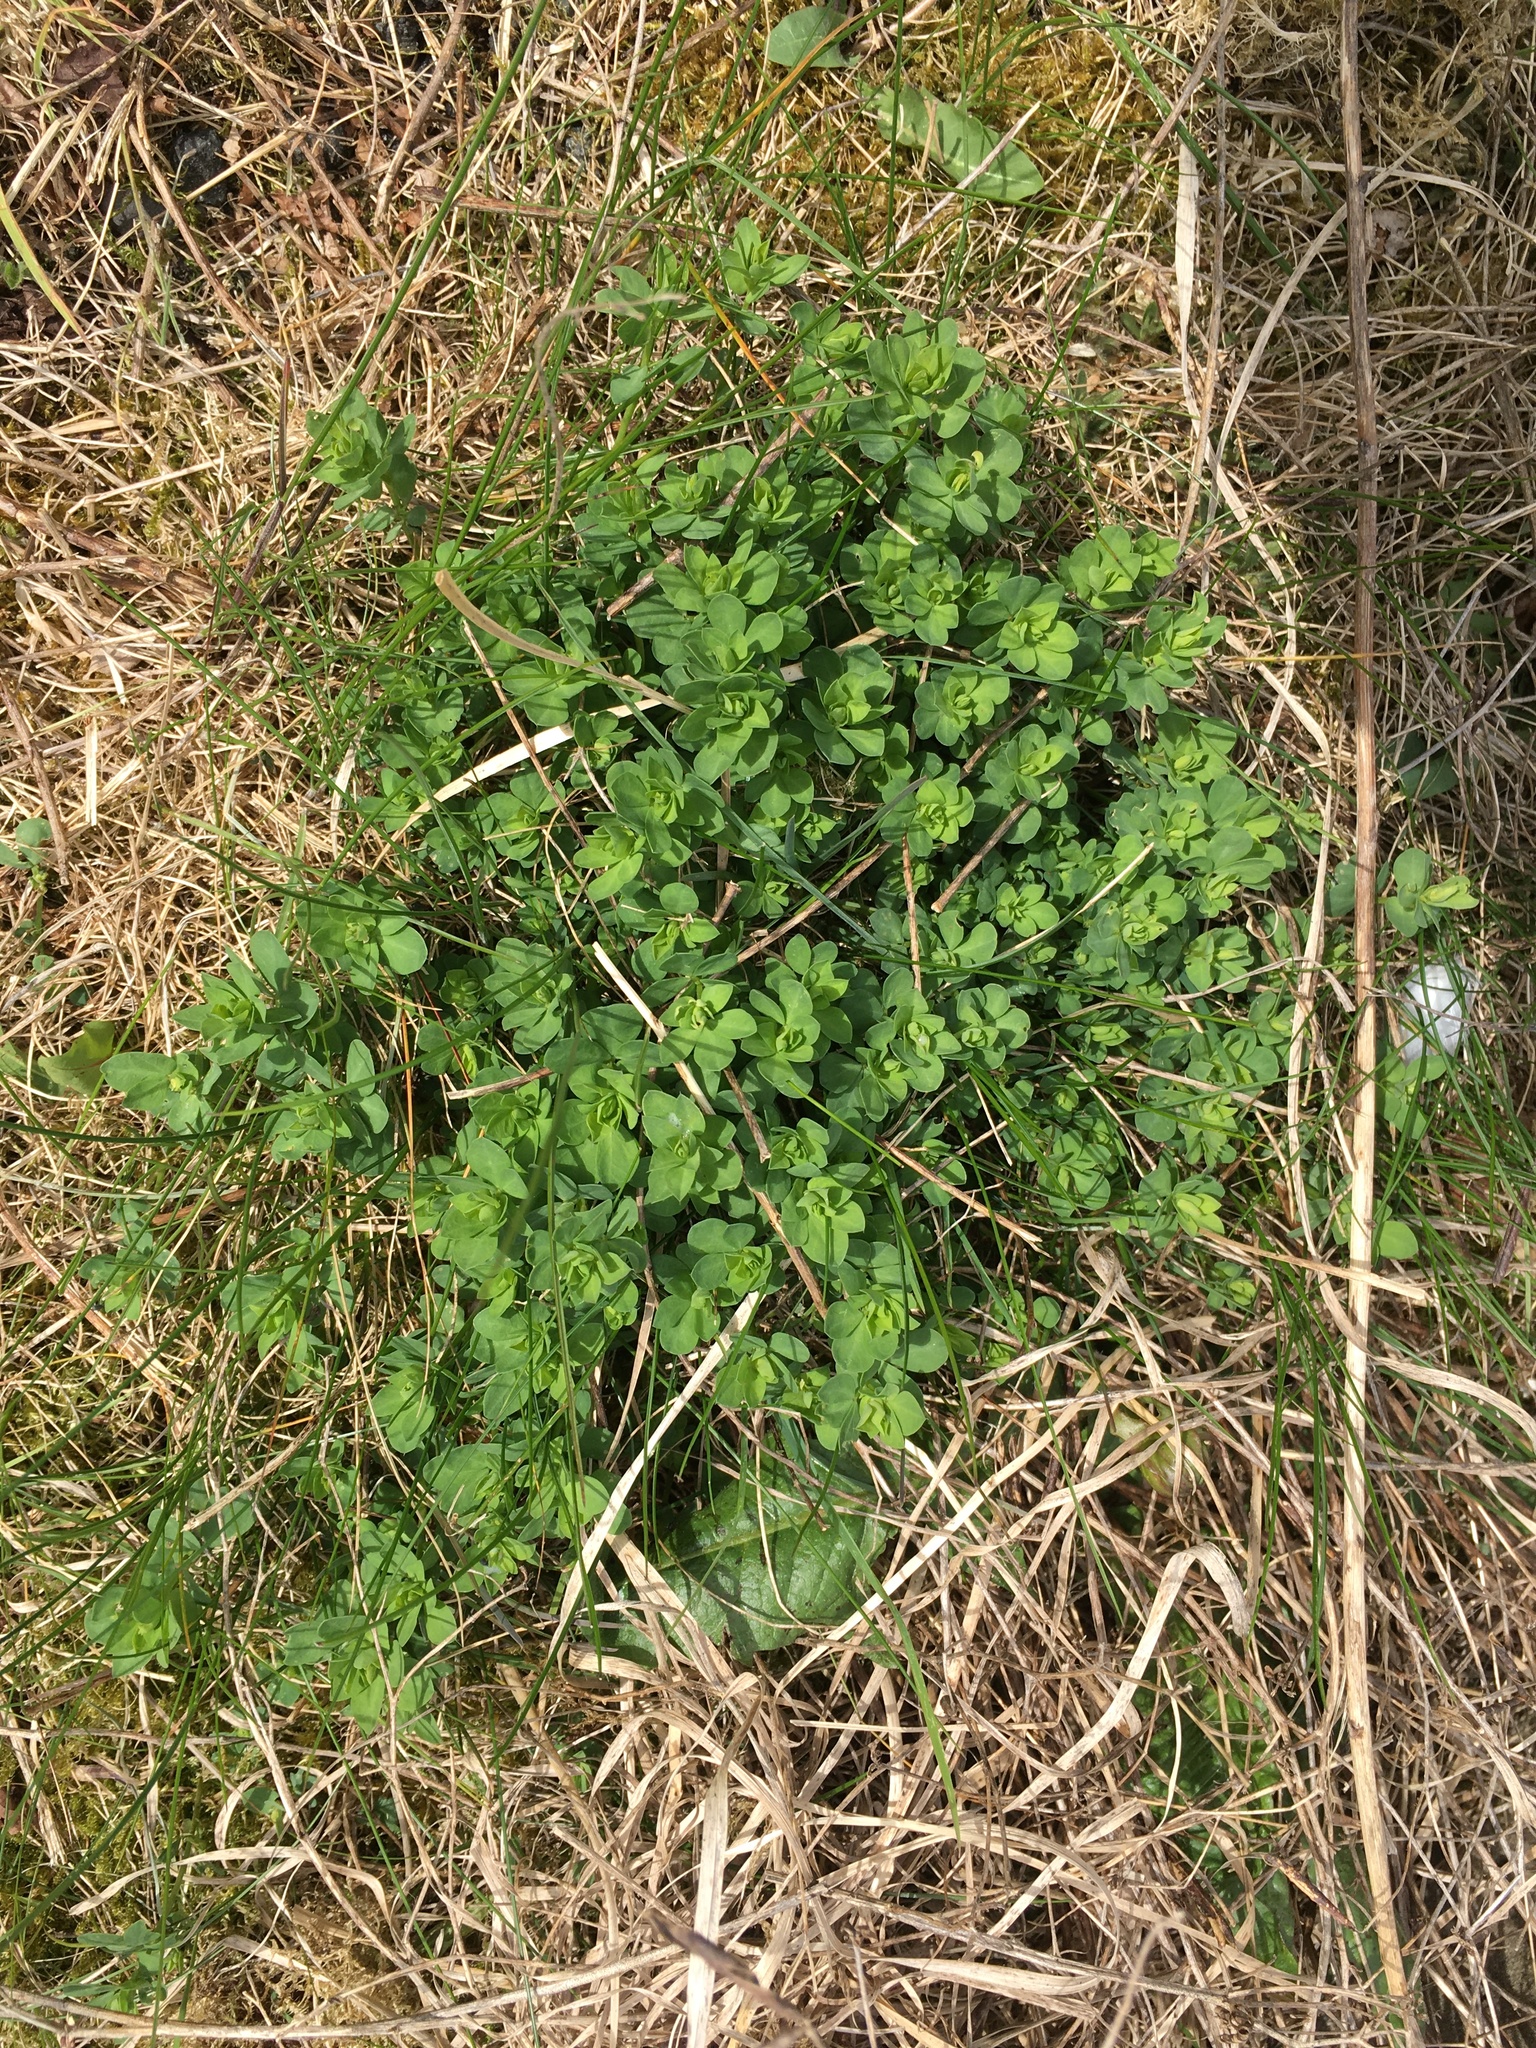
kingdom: Plantae
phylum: Tracheophyta
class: Magnoliopsida
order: Fabales
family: Fabaceae
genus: Lotus
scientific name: Lotus corniculatus
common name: Common bird's-foot-trefoil
